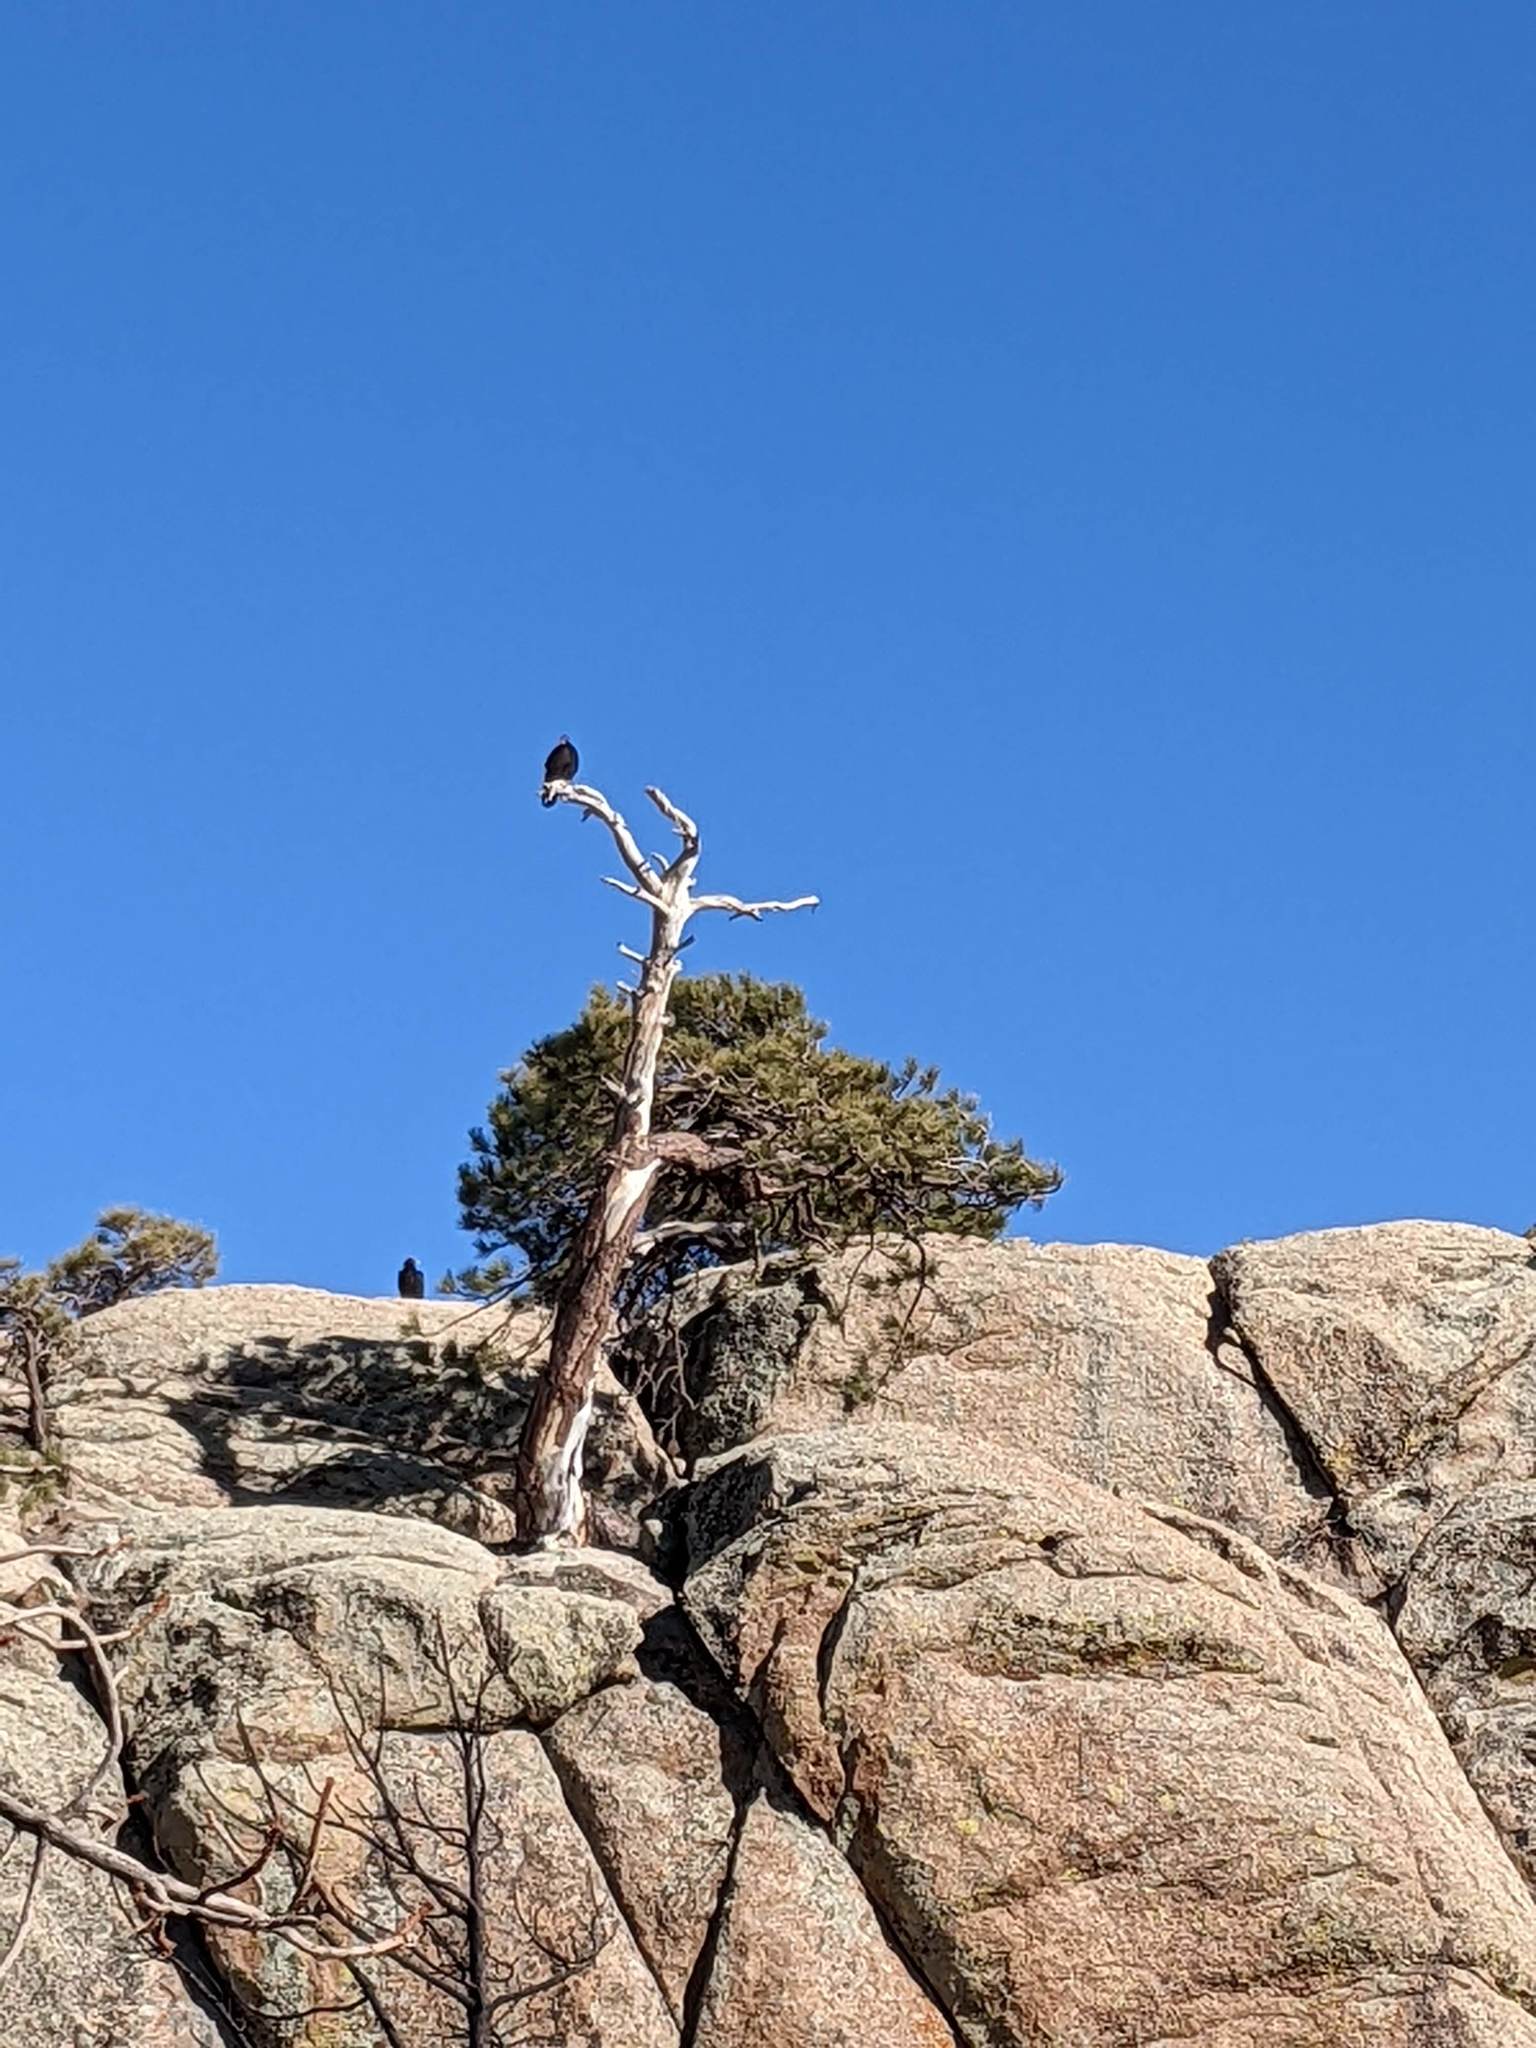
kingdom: Animalia
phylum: Chordata
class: Aves
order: Accipitriformes
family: Cathartidae
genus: Cathartes
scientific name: Cathartes aura
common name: Turkey vulture
